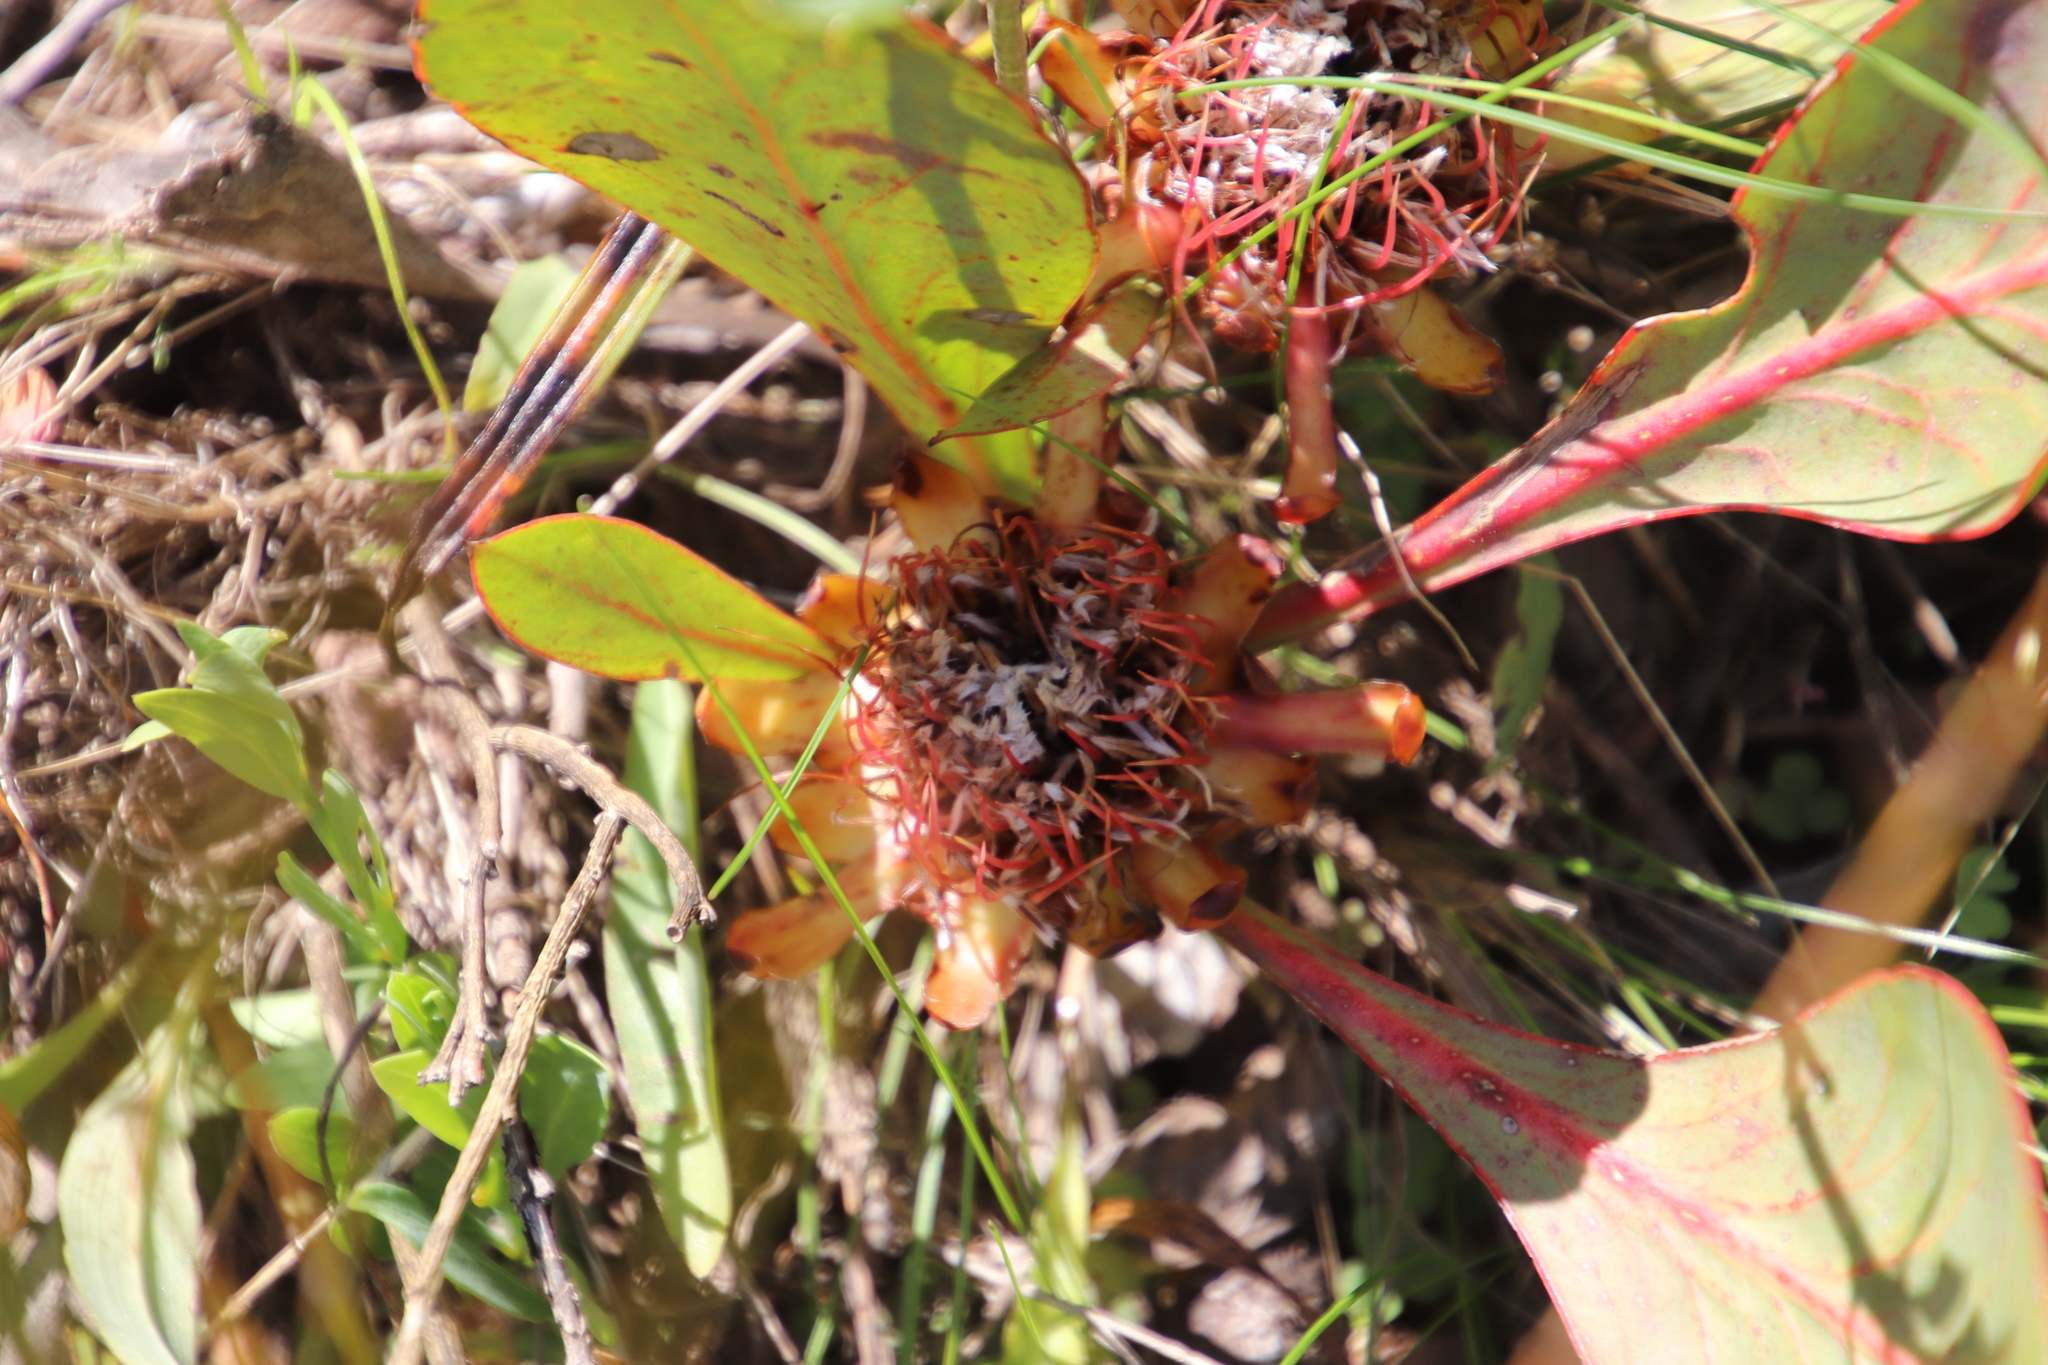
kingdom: Plantae
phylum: Tracheophyta
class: Magnoliopsida
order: Proteales
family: Proteaceae
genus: Protea
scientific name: Protea acaulos
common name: Common ground sugarbush
